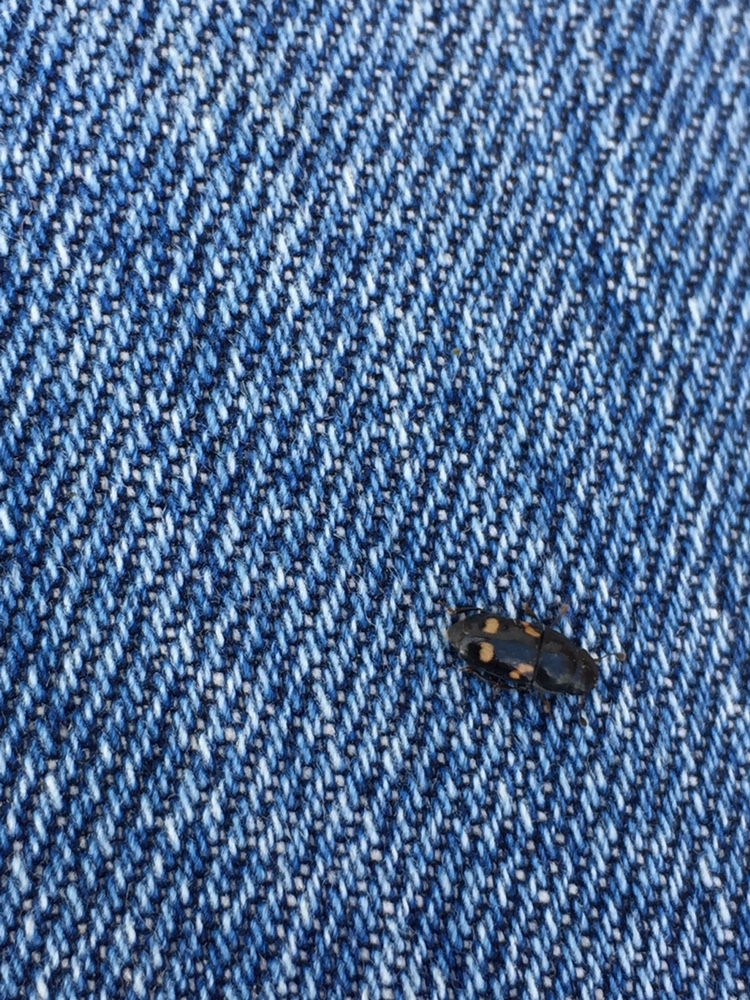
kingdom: Animalia
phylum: Arthropoda
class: Insecta
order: Coleoptera
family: Nitidulidae
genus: Glischrochilus
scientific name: Glischrochilus quadrisignatus
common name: Picnic beetle
